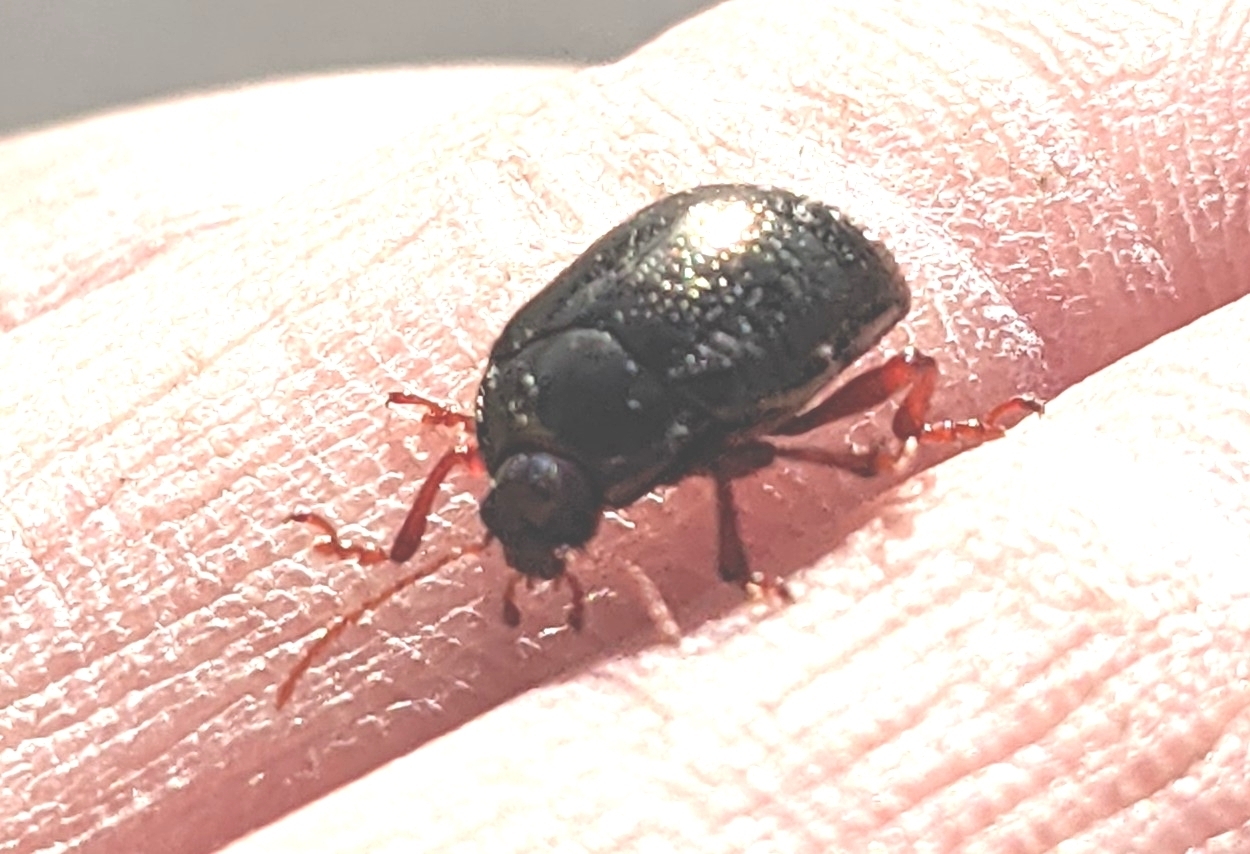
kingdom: Animalia
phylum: Arthropoda
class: Insecta
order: Coleoptera
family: Chrysomelidae
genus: Chrysolina
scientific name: Chrysolina bankii
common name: Leaf beetle
